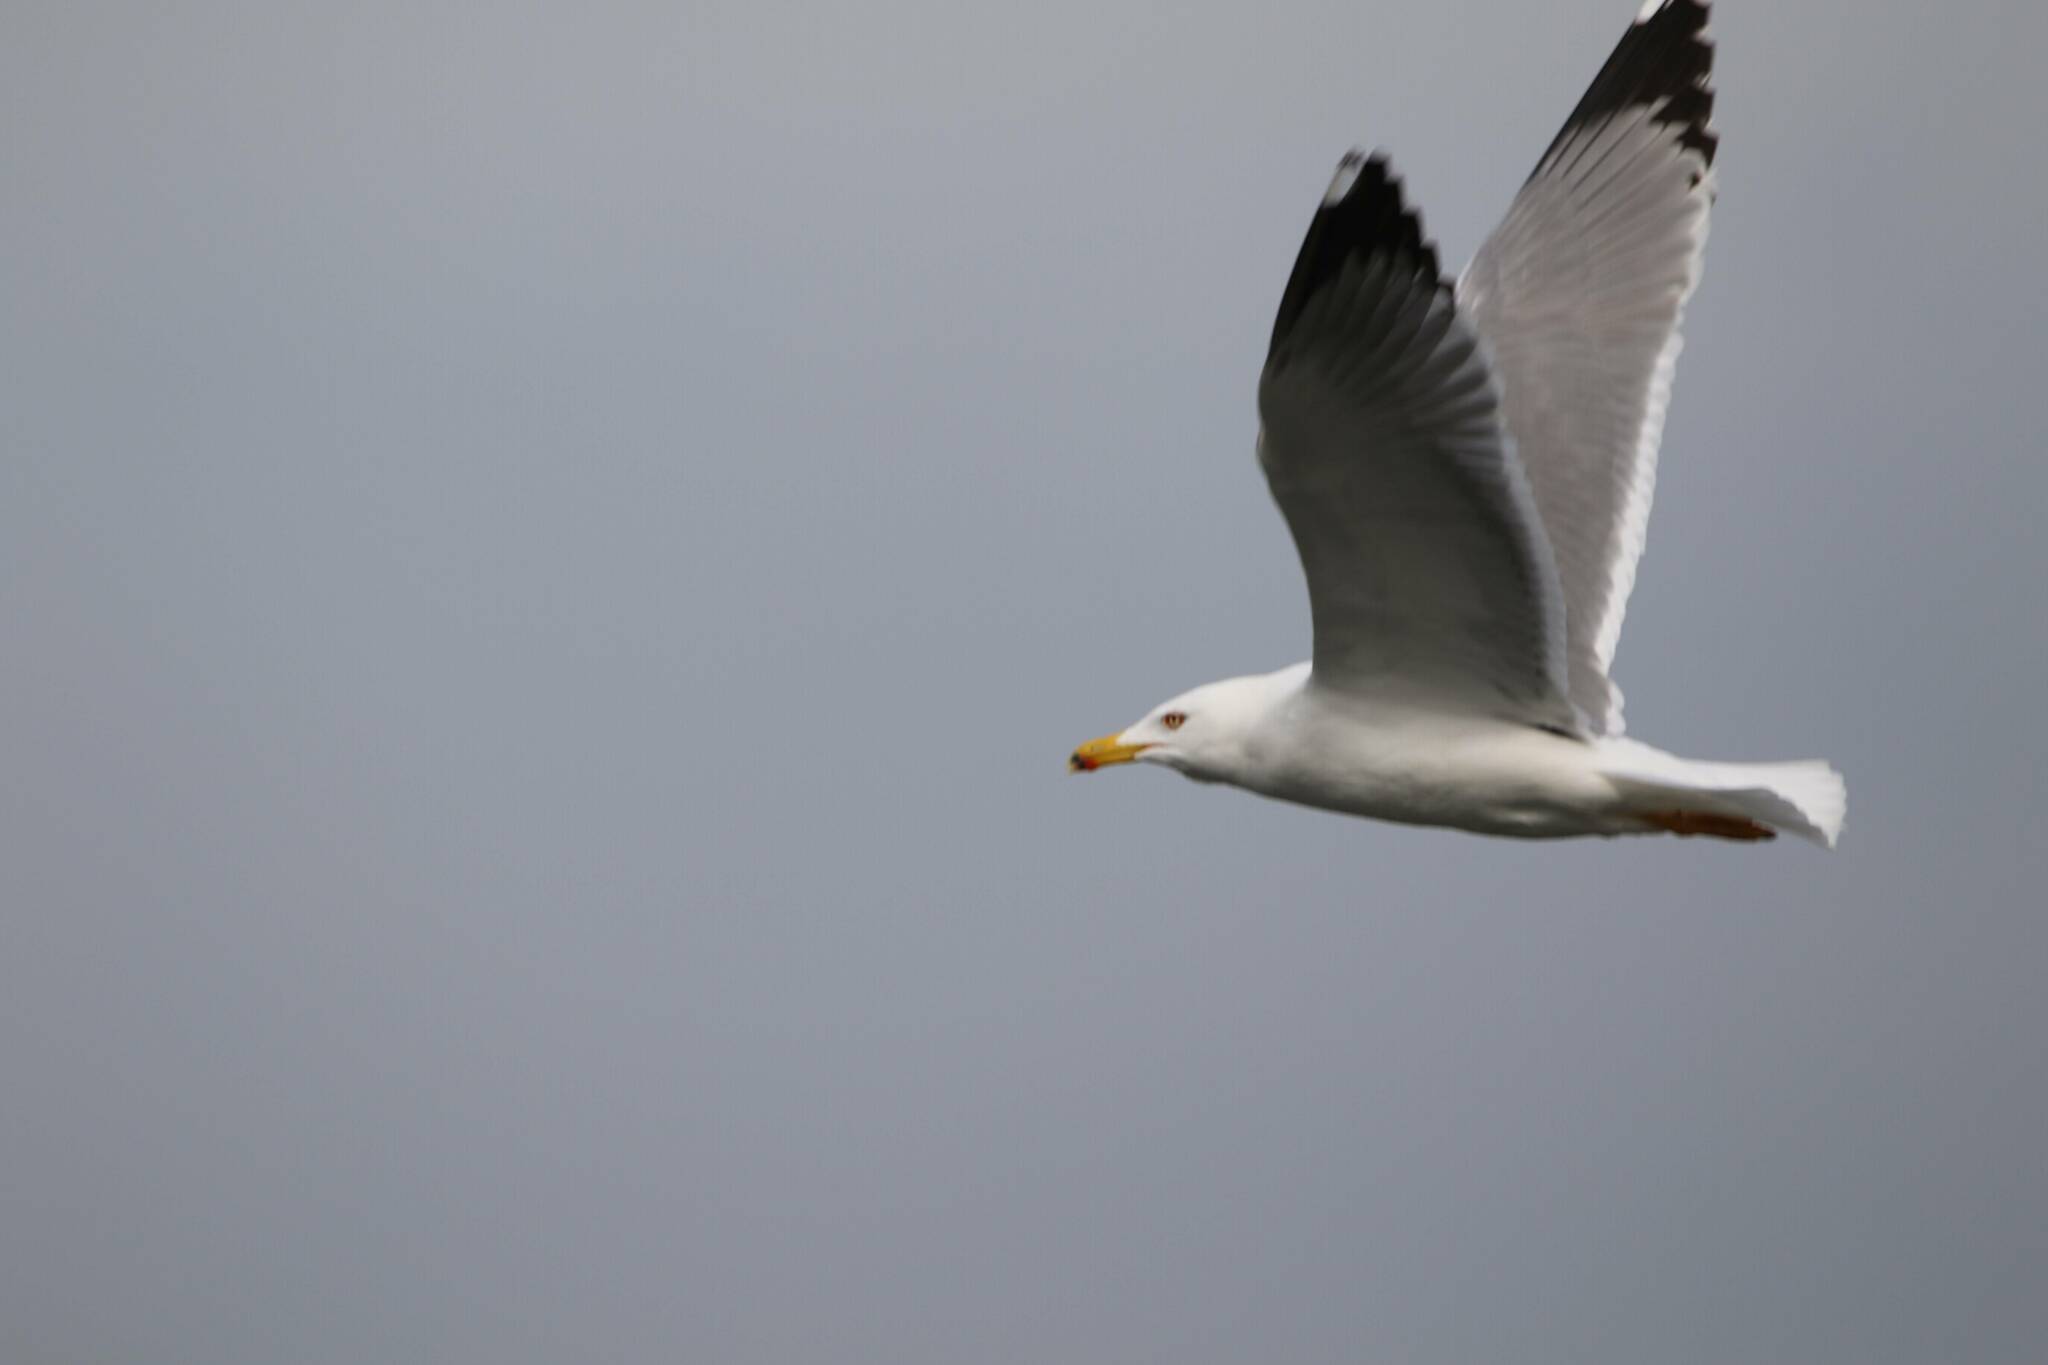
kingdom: Animalia
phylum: Chordata
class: Aves
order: Charadriiformes
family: Laridae
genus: Larus
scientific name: Larus michahellis
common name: Yellow-legged gull
